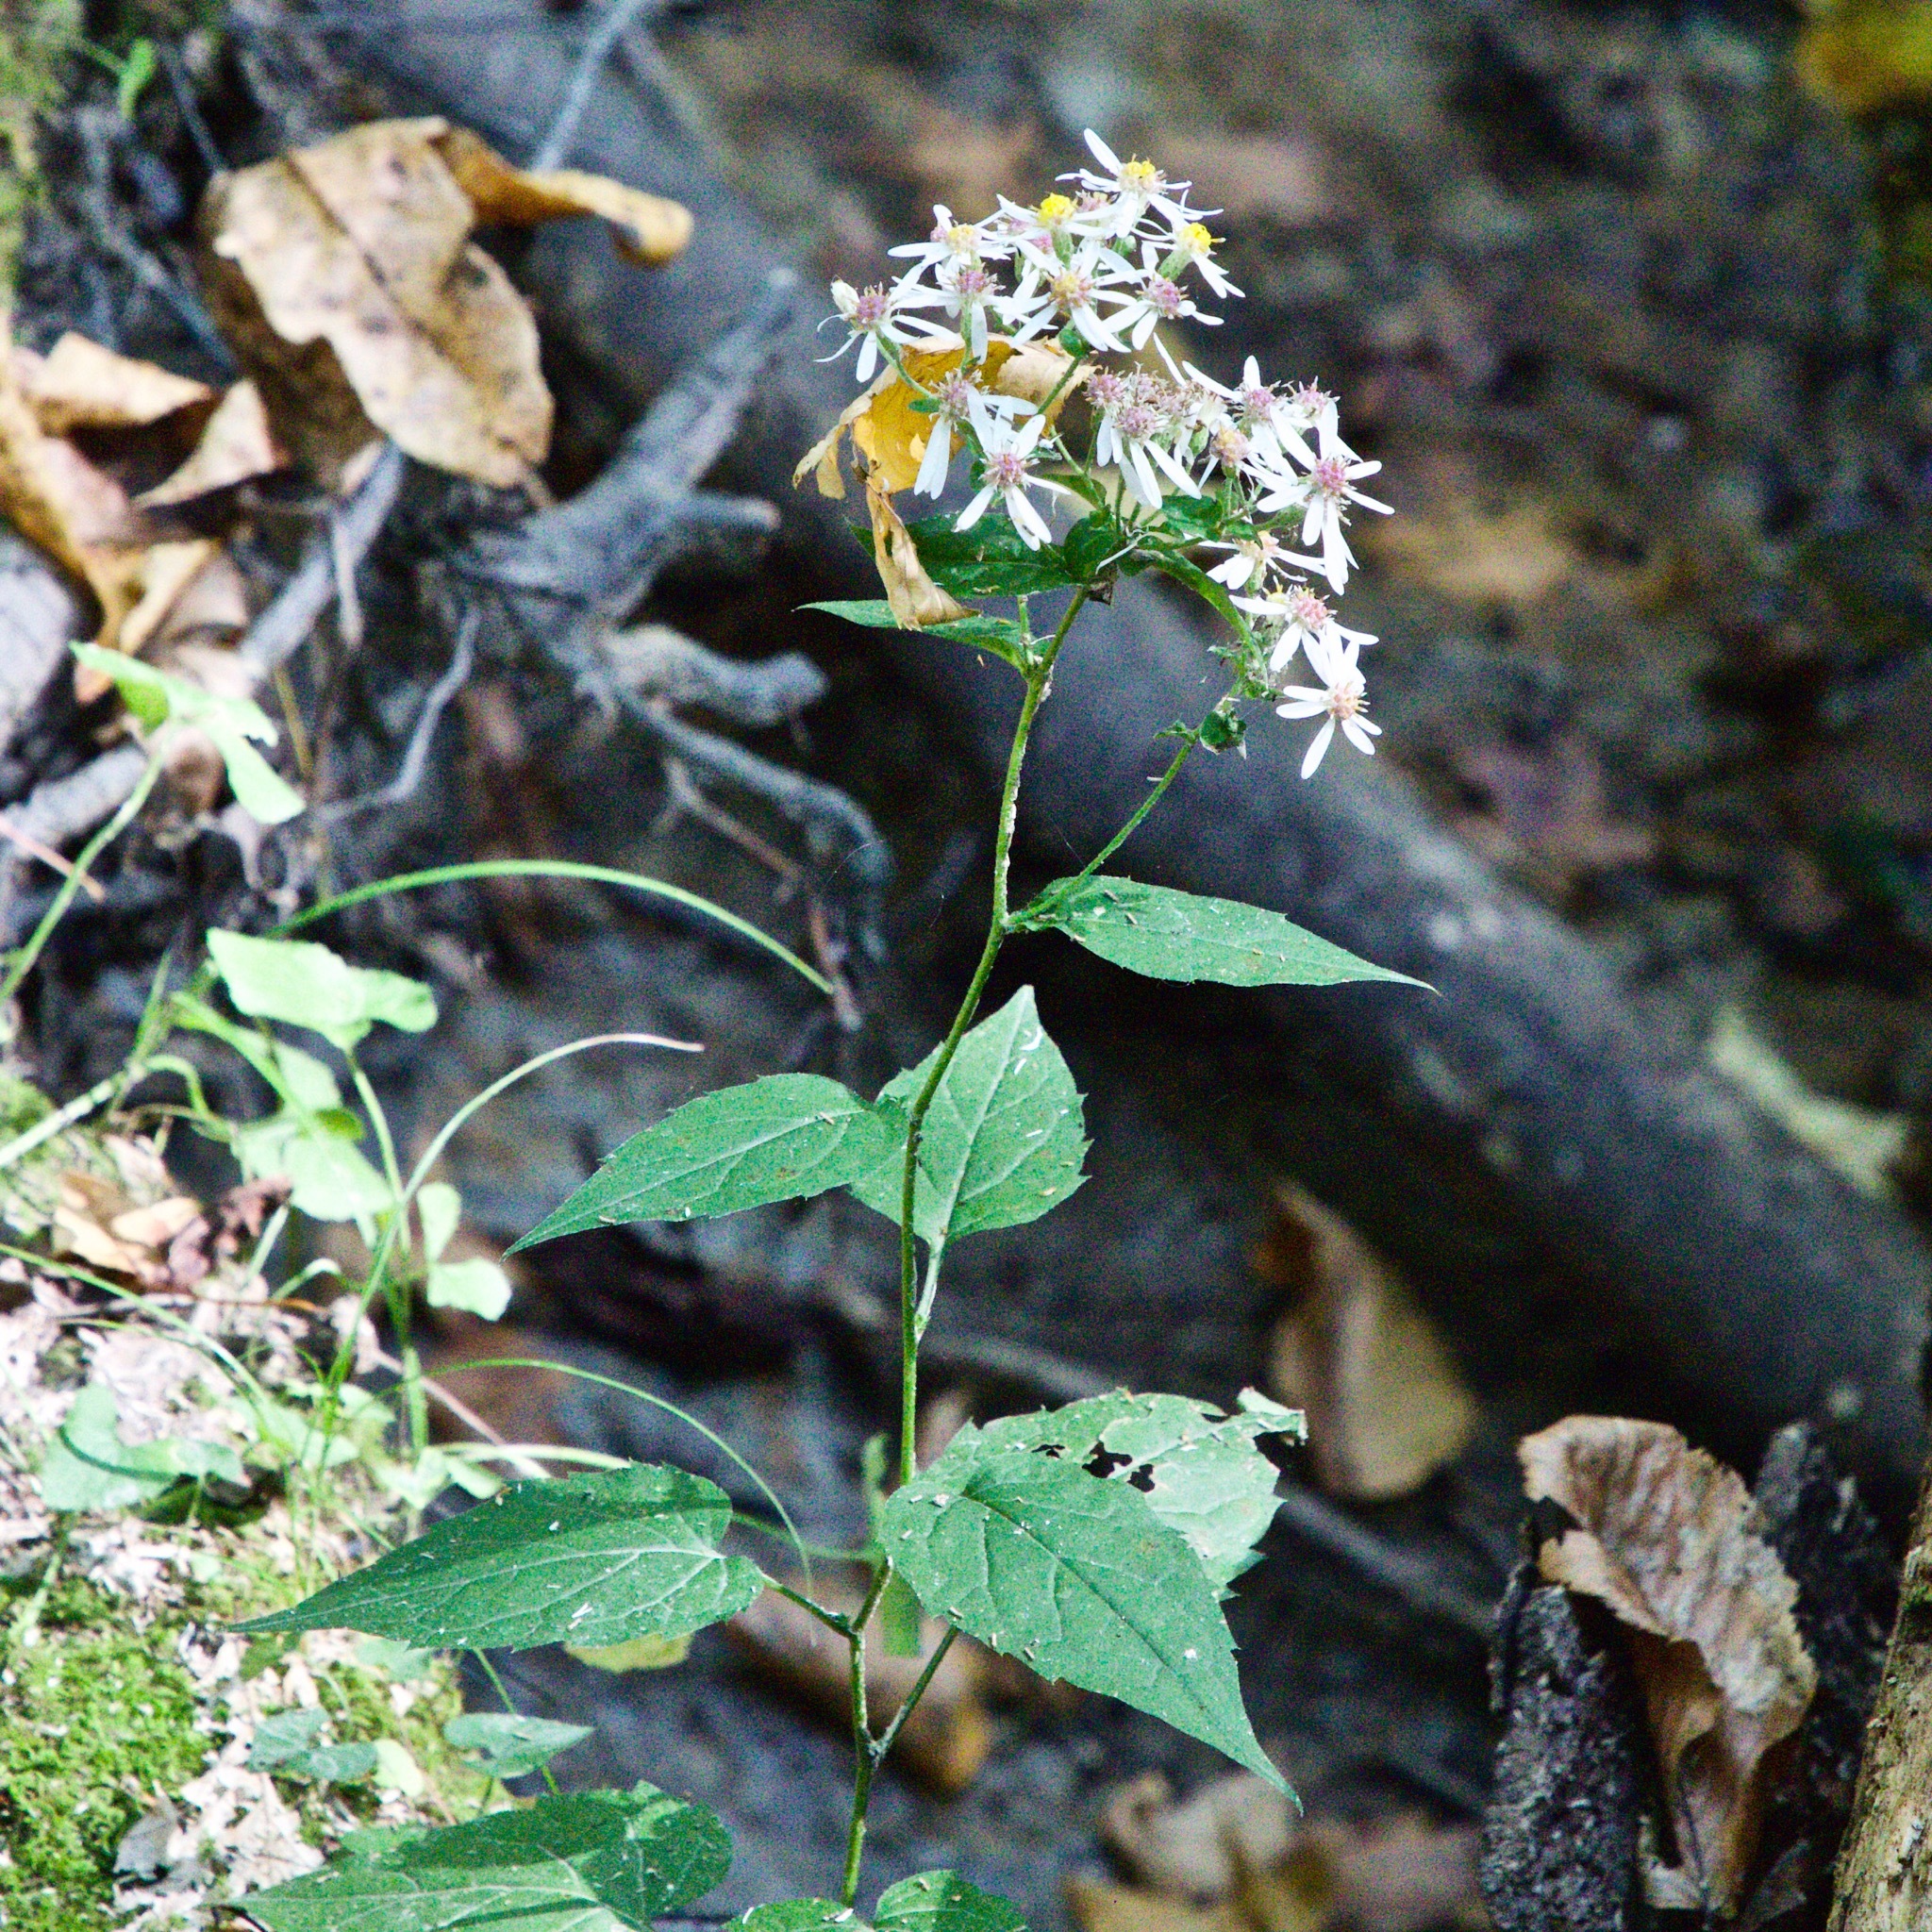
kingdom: Plantae
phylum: Tracheophyta
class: Magnoliopsida
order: Asterales
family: Asteraceae
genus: Eurybia
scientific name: Eurybia divaricata
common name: White wood aster
